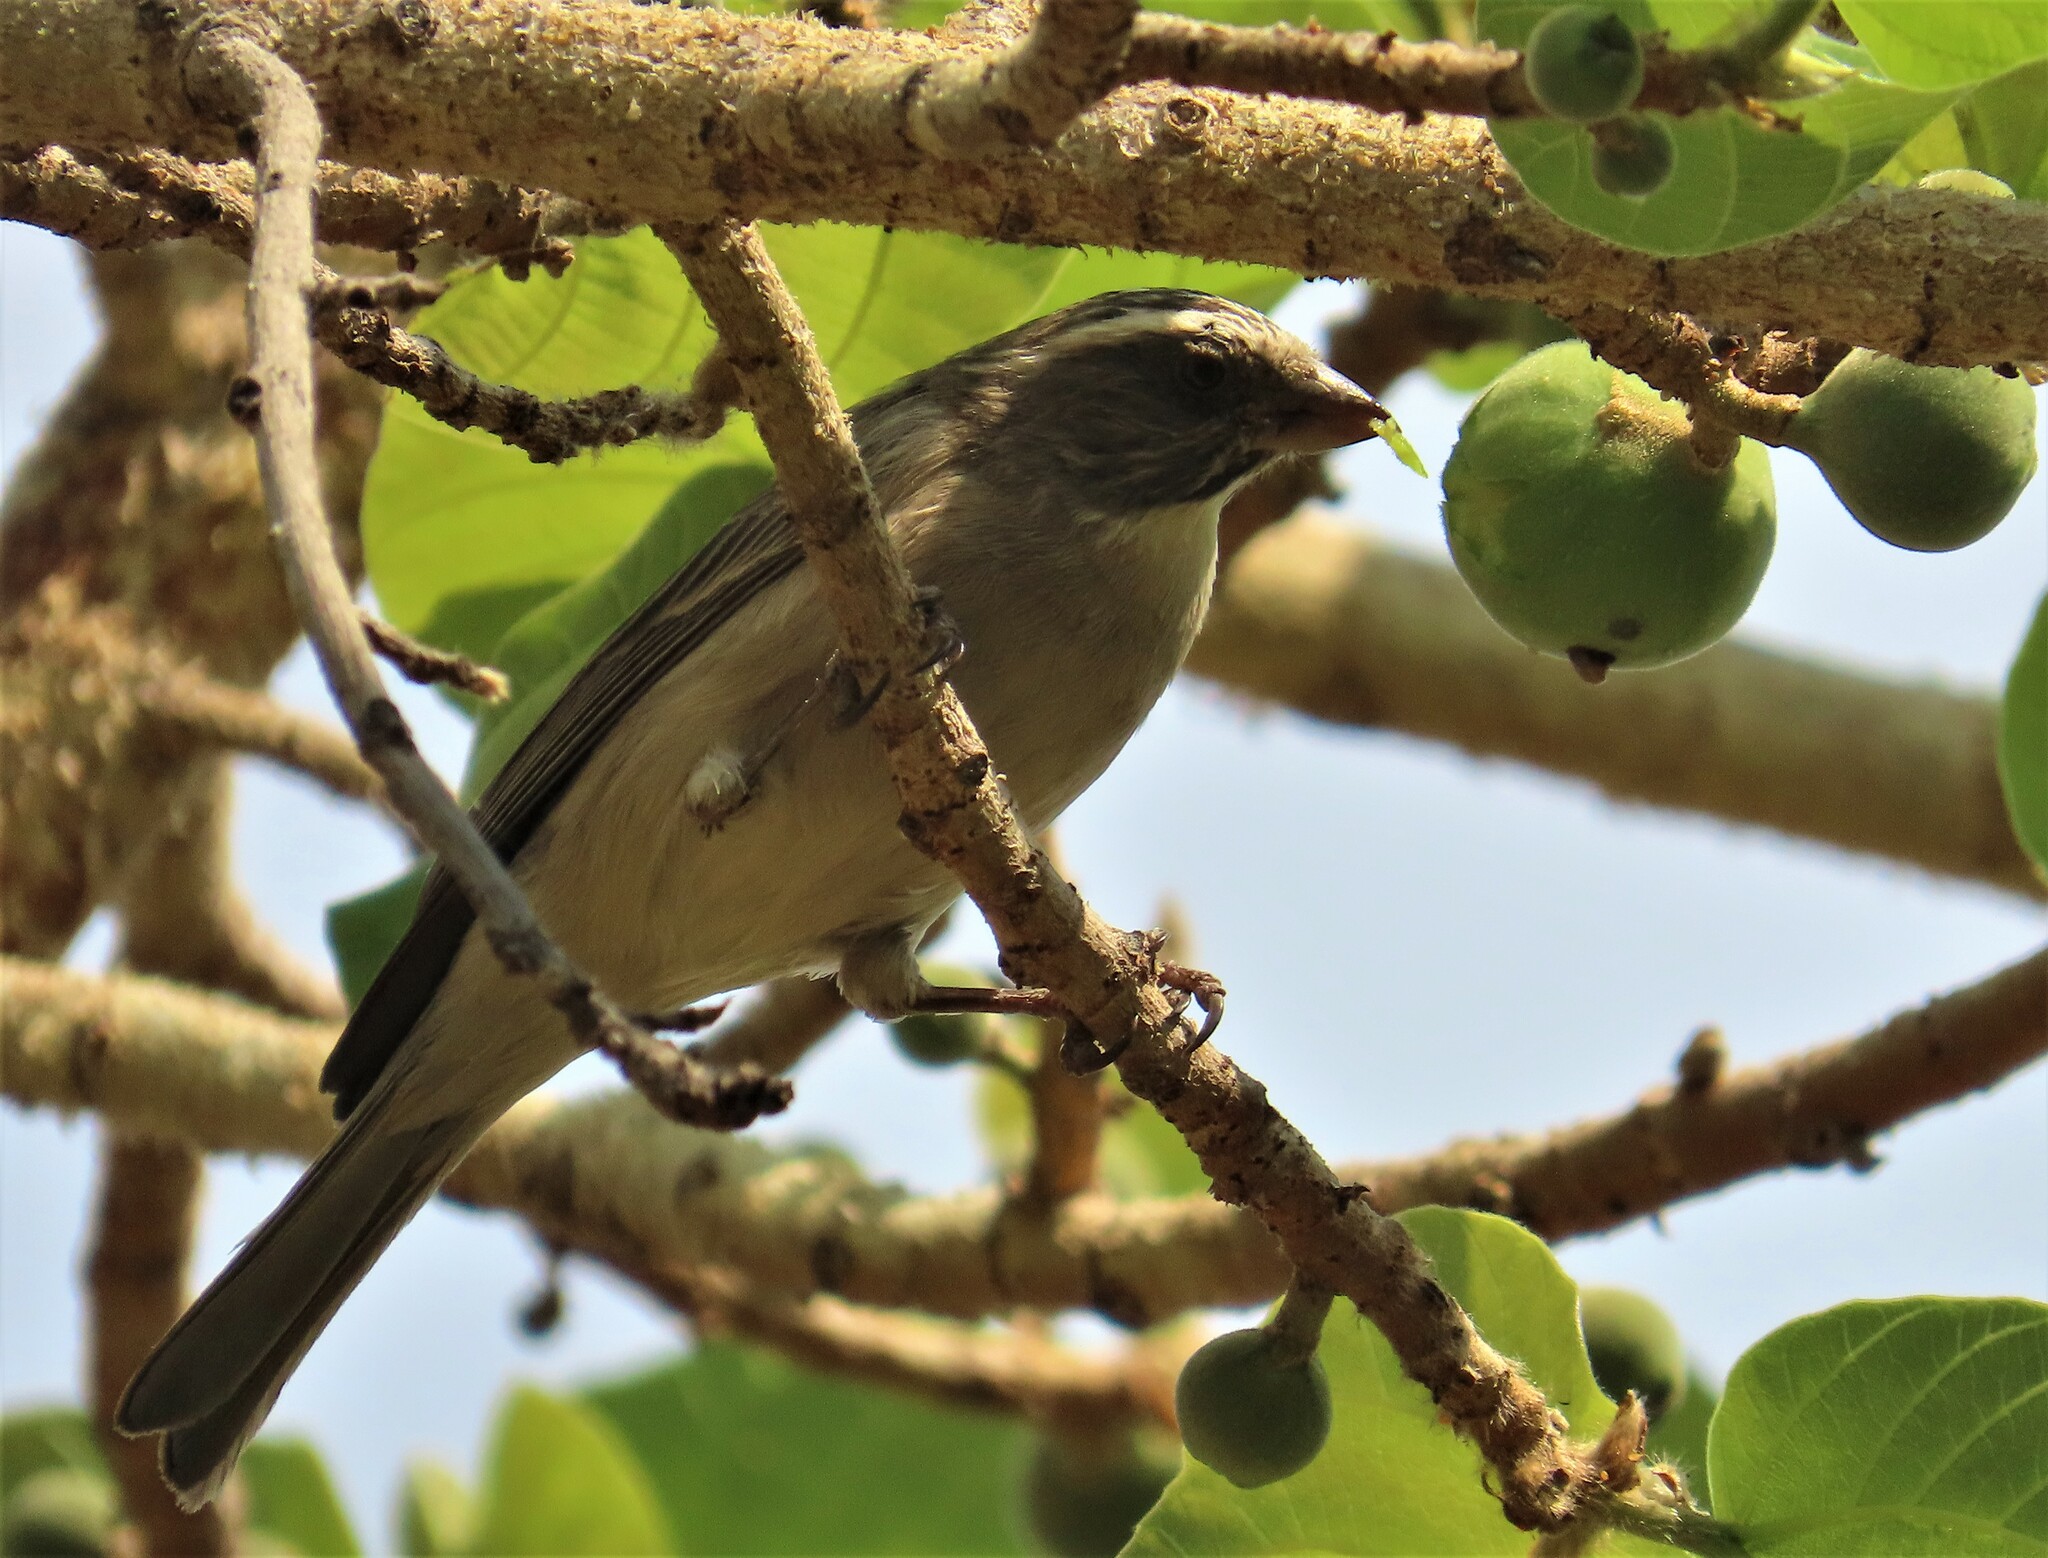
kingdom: Animalia
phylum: Chordata
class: Aves
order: Passeriformes
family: Fringillidae
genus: Crithagra
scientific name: Crithagra gularis
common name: Streaky-headed seedeater
